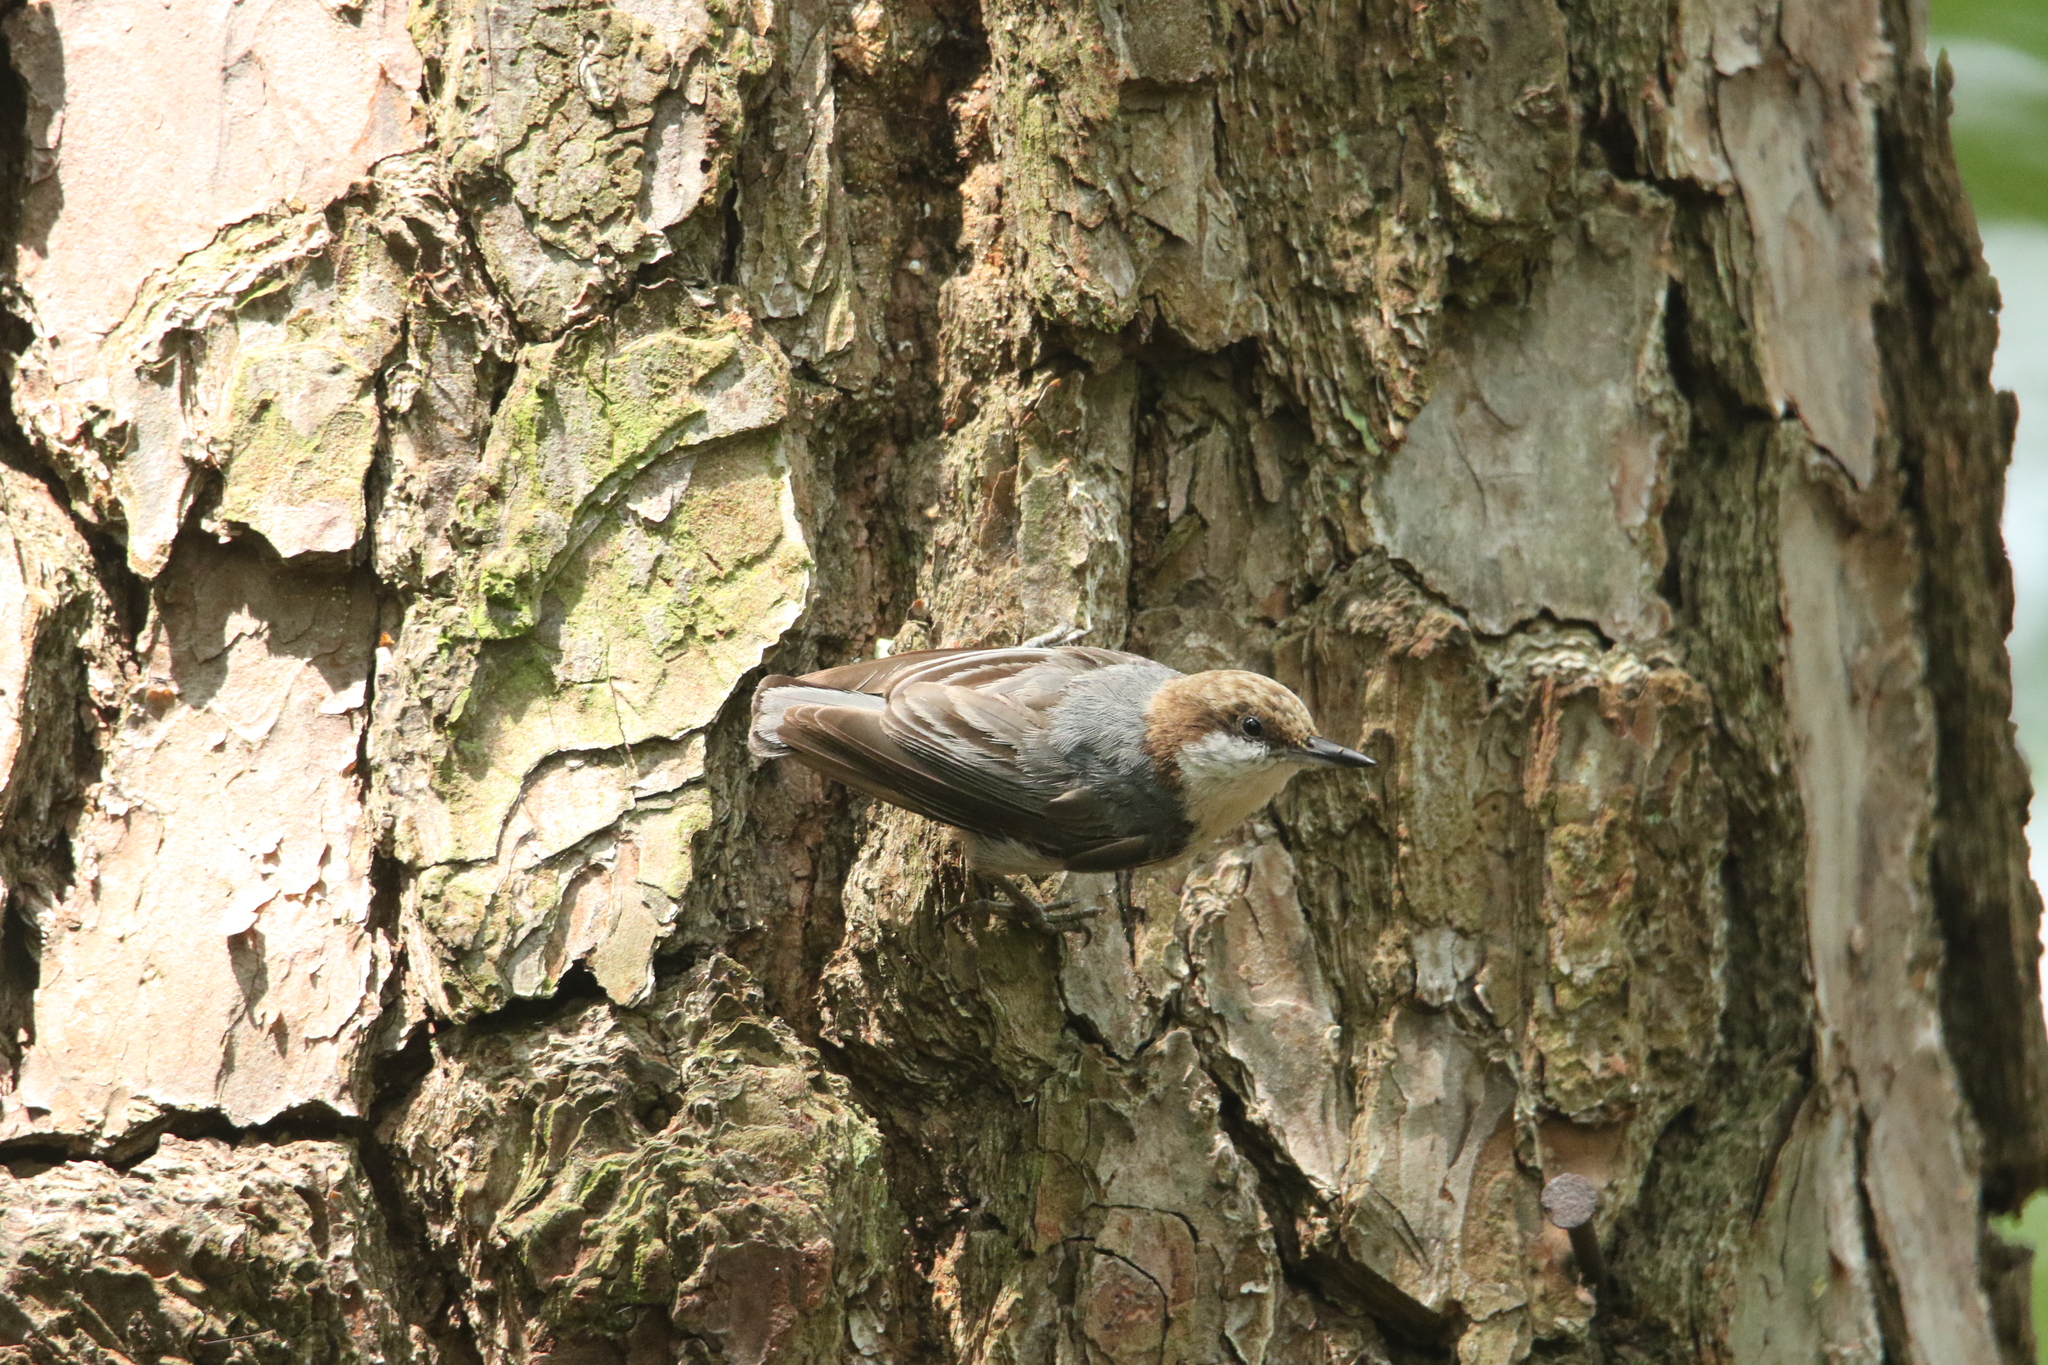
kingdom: Animalia
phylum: Chordata
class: Aves
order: Passeriformes
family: Sittidae
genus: Sitta
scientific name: Sitta pusilla
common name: Brown-headed nuthatch
